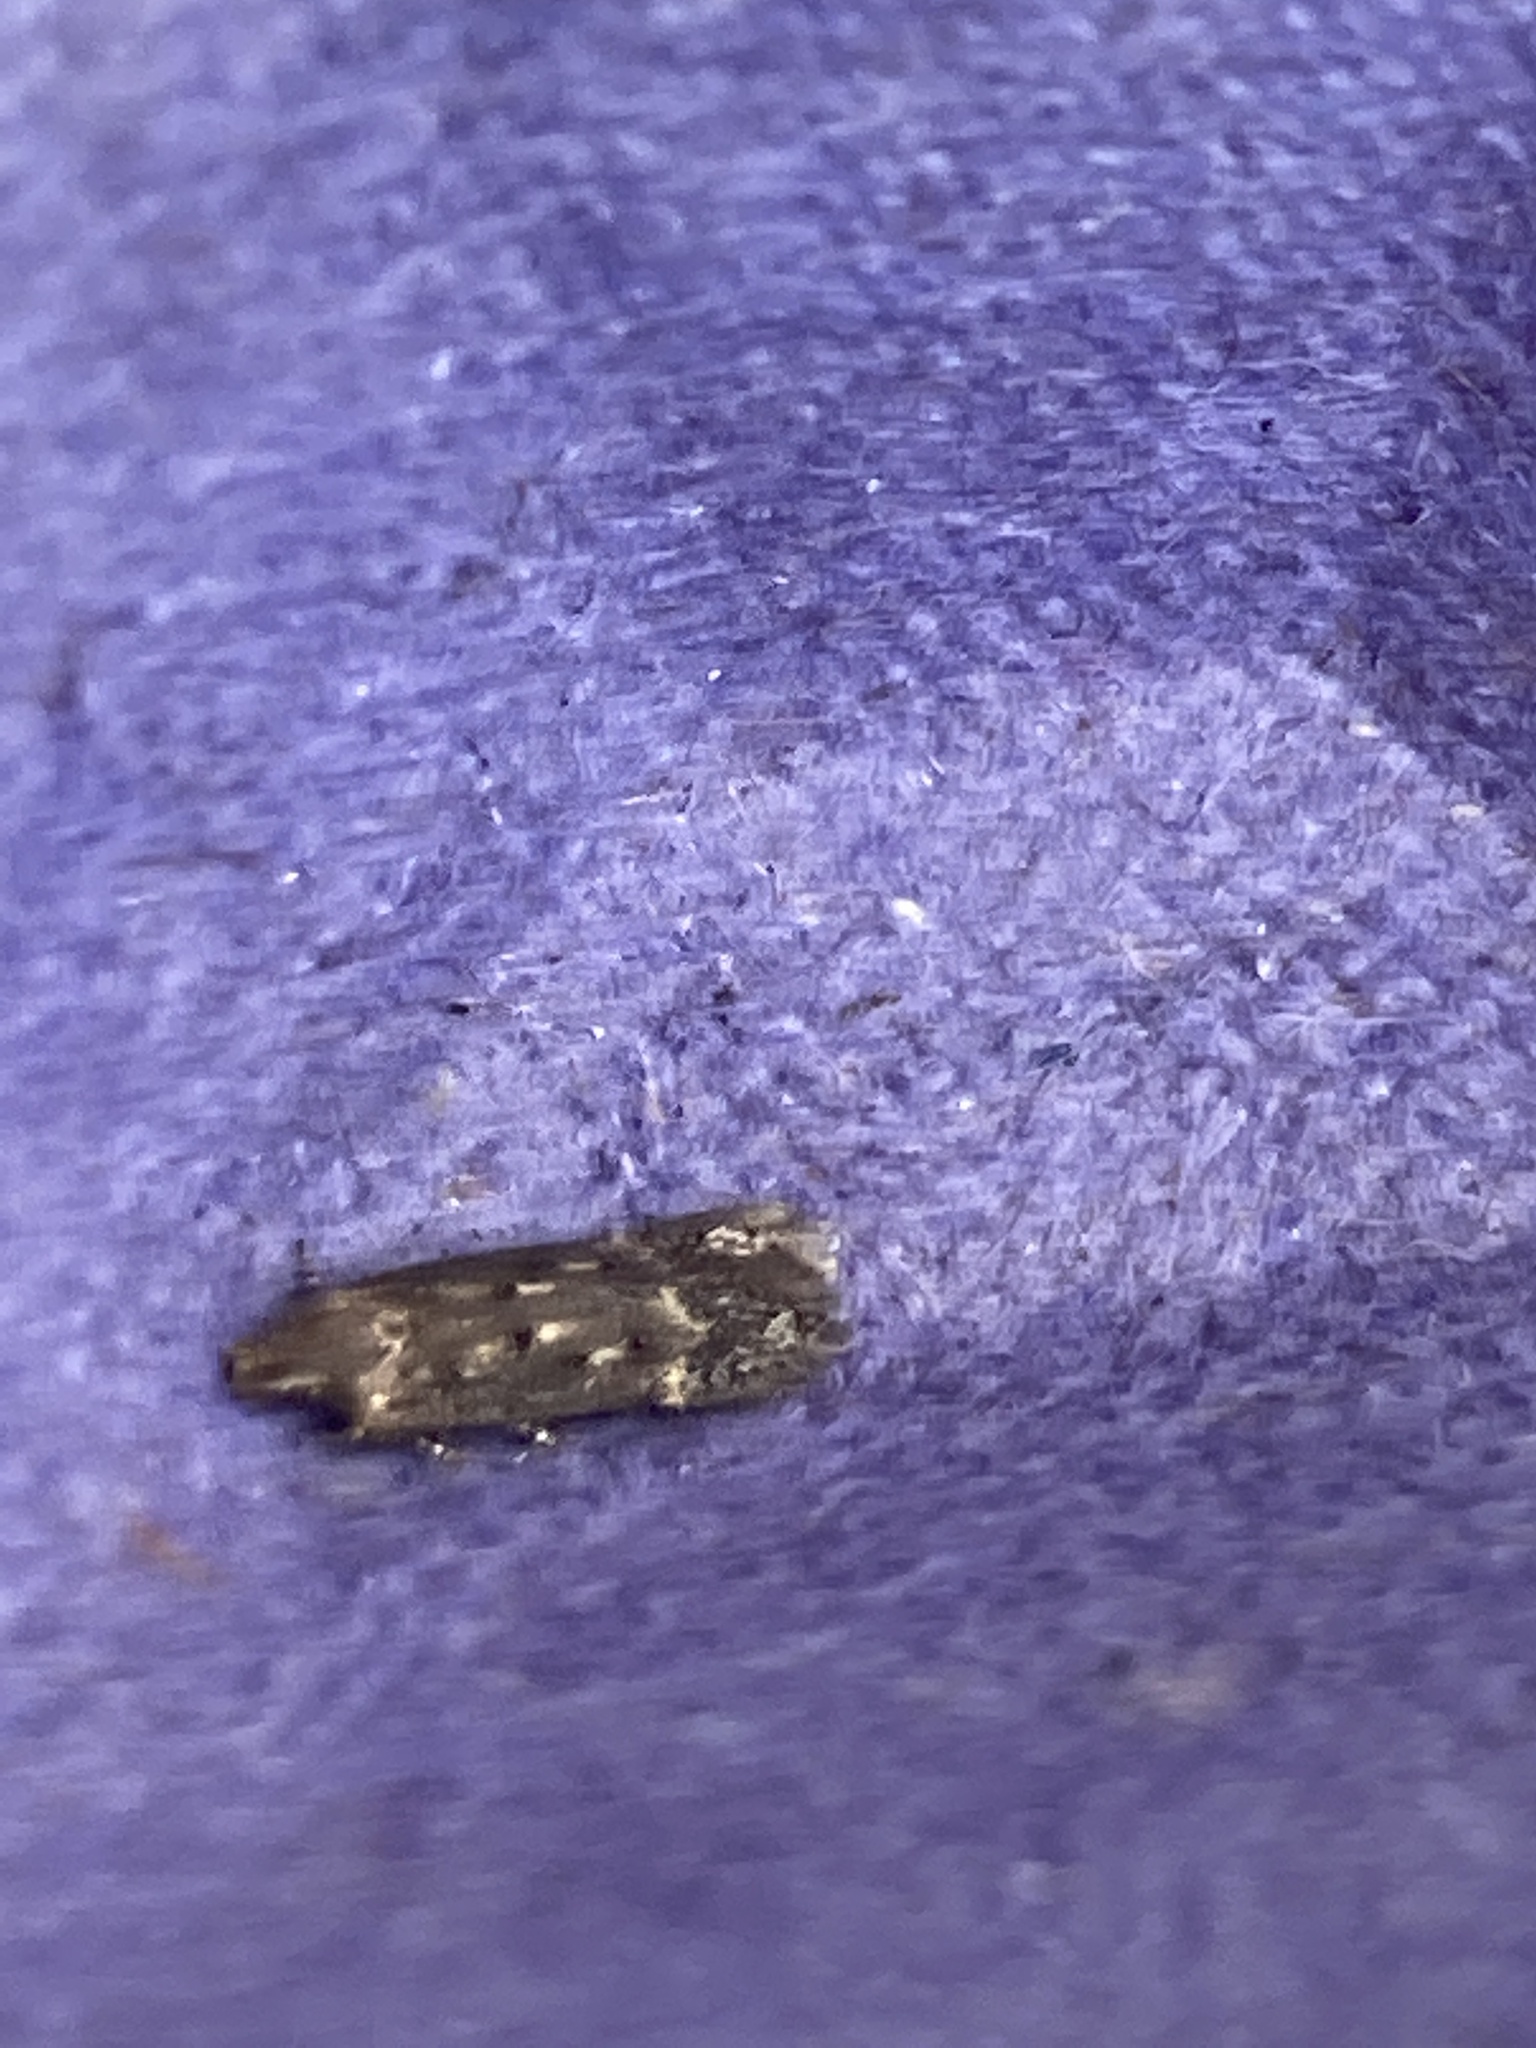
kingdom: Animalia
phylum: Arthropoda
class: Insecta
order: Lepidoptera
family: Gelechiidae
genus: Bryotropha
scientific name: Bryotropha affinis
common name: Dark groundling
